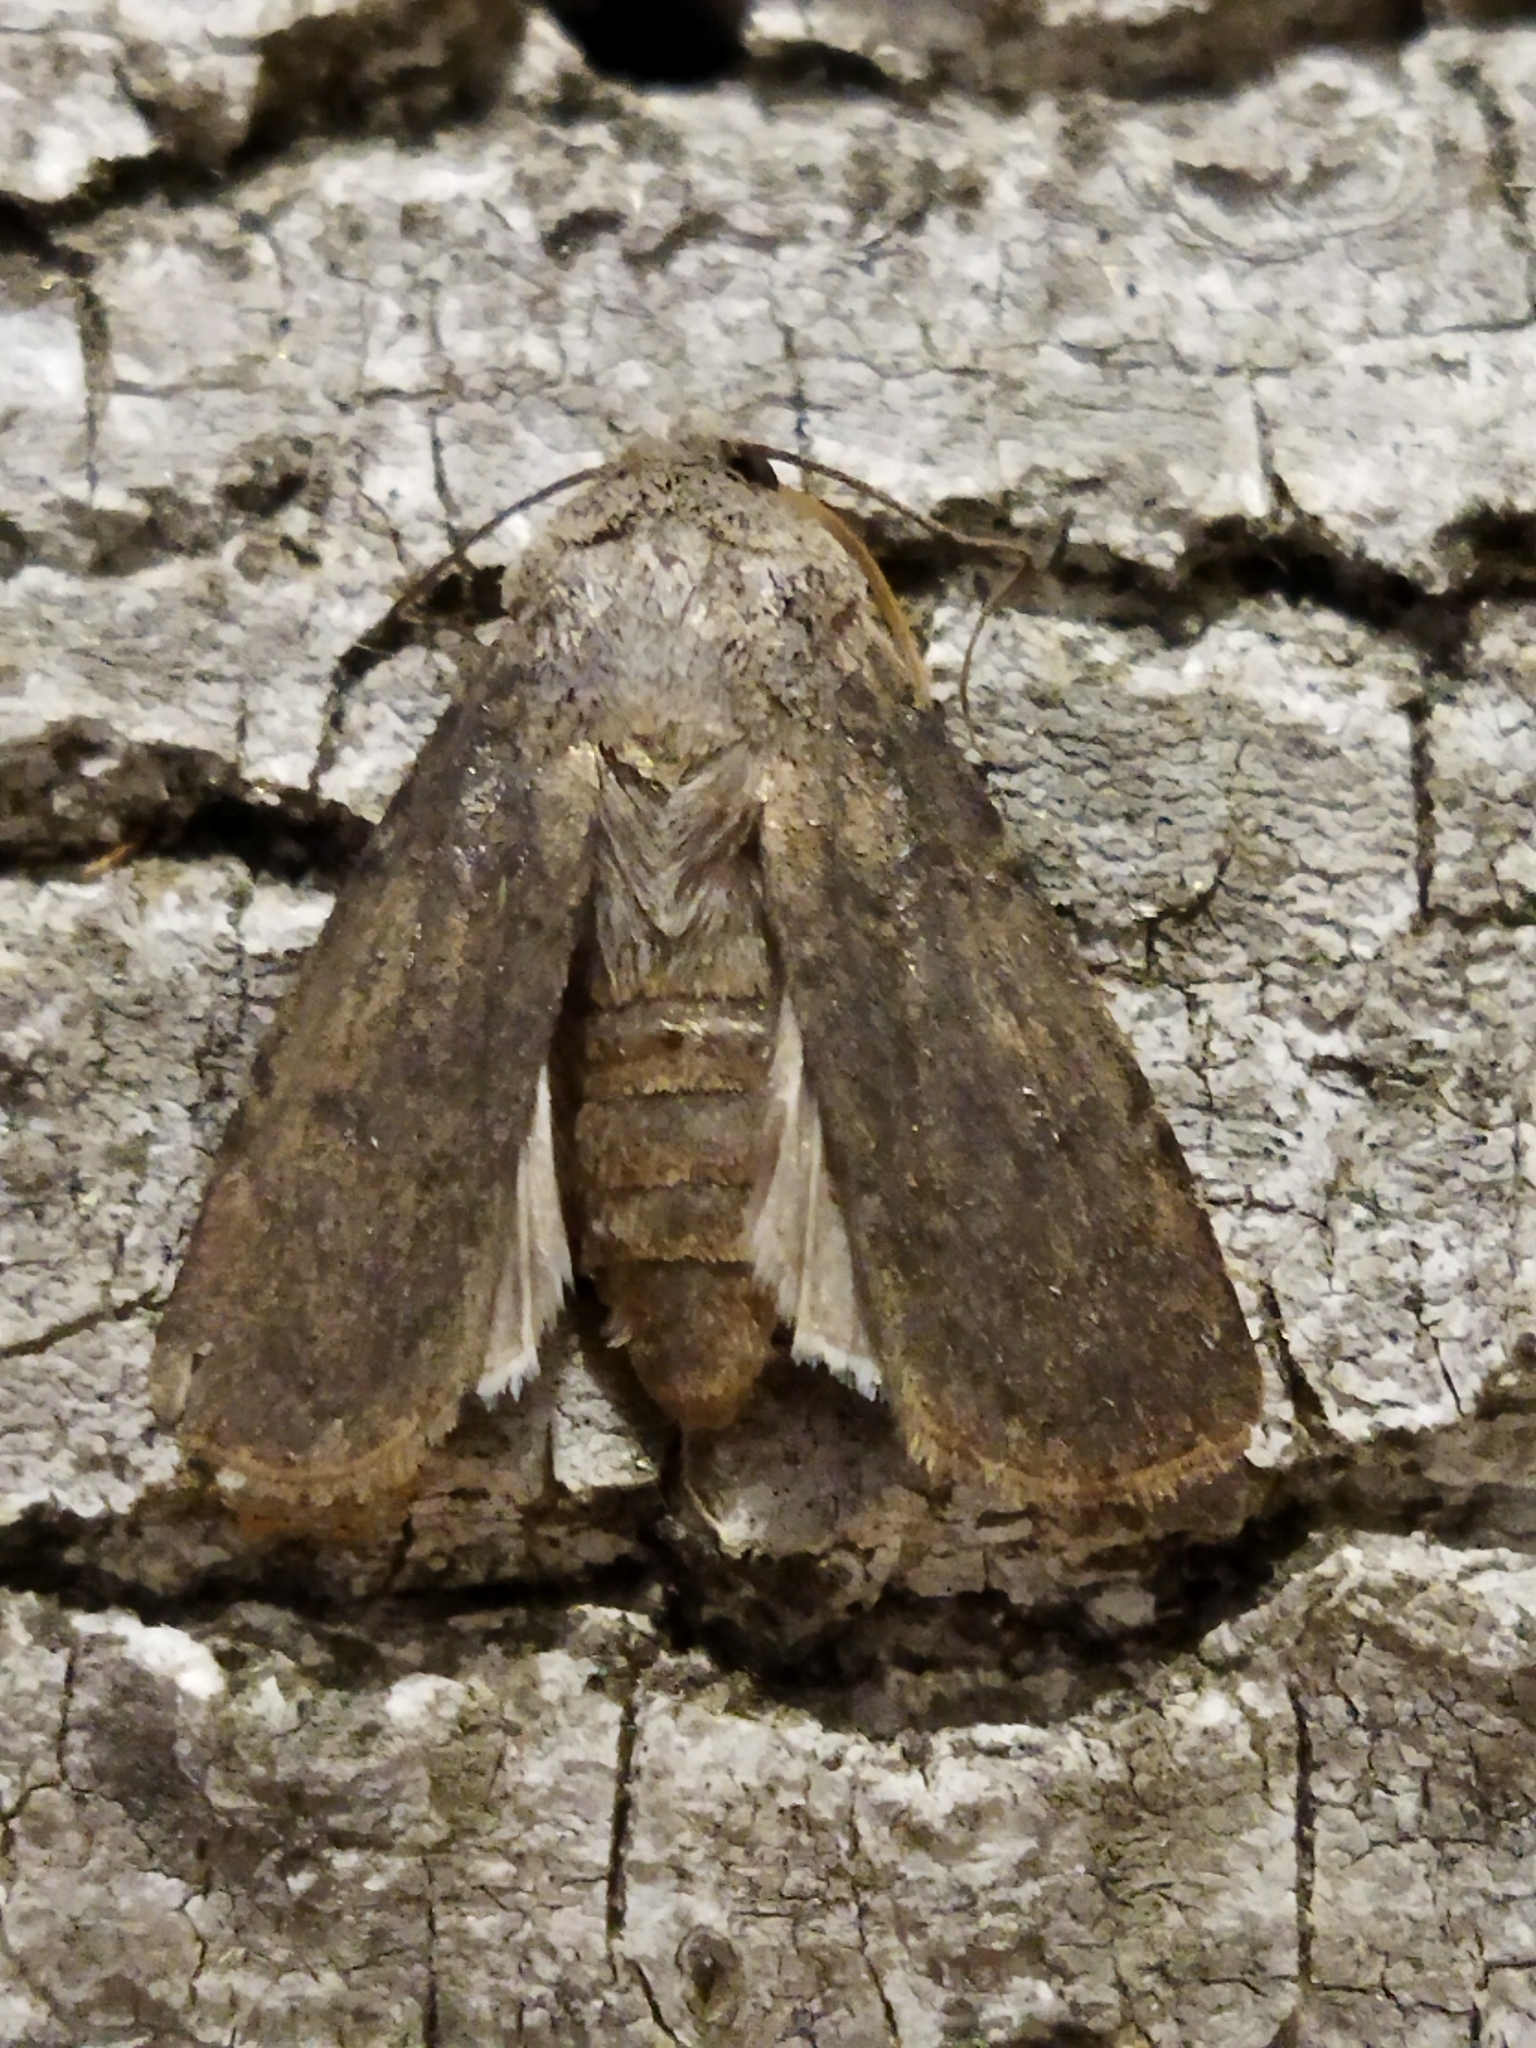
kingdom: Animalia
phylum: Arthropoda
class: Insecta
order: Lepidoptera
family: Noctuidae
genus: Agrotis
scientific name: Agrotis segetum
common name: Turnip moth
